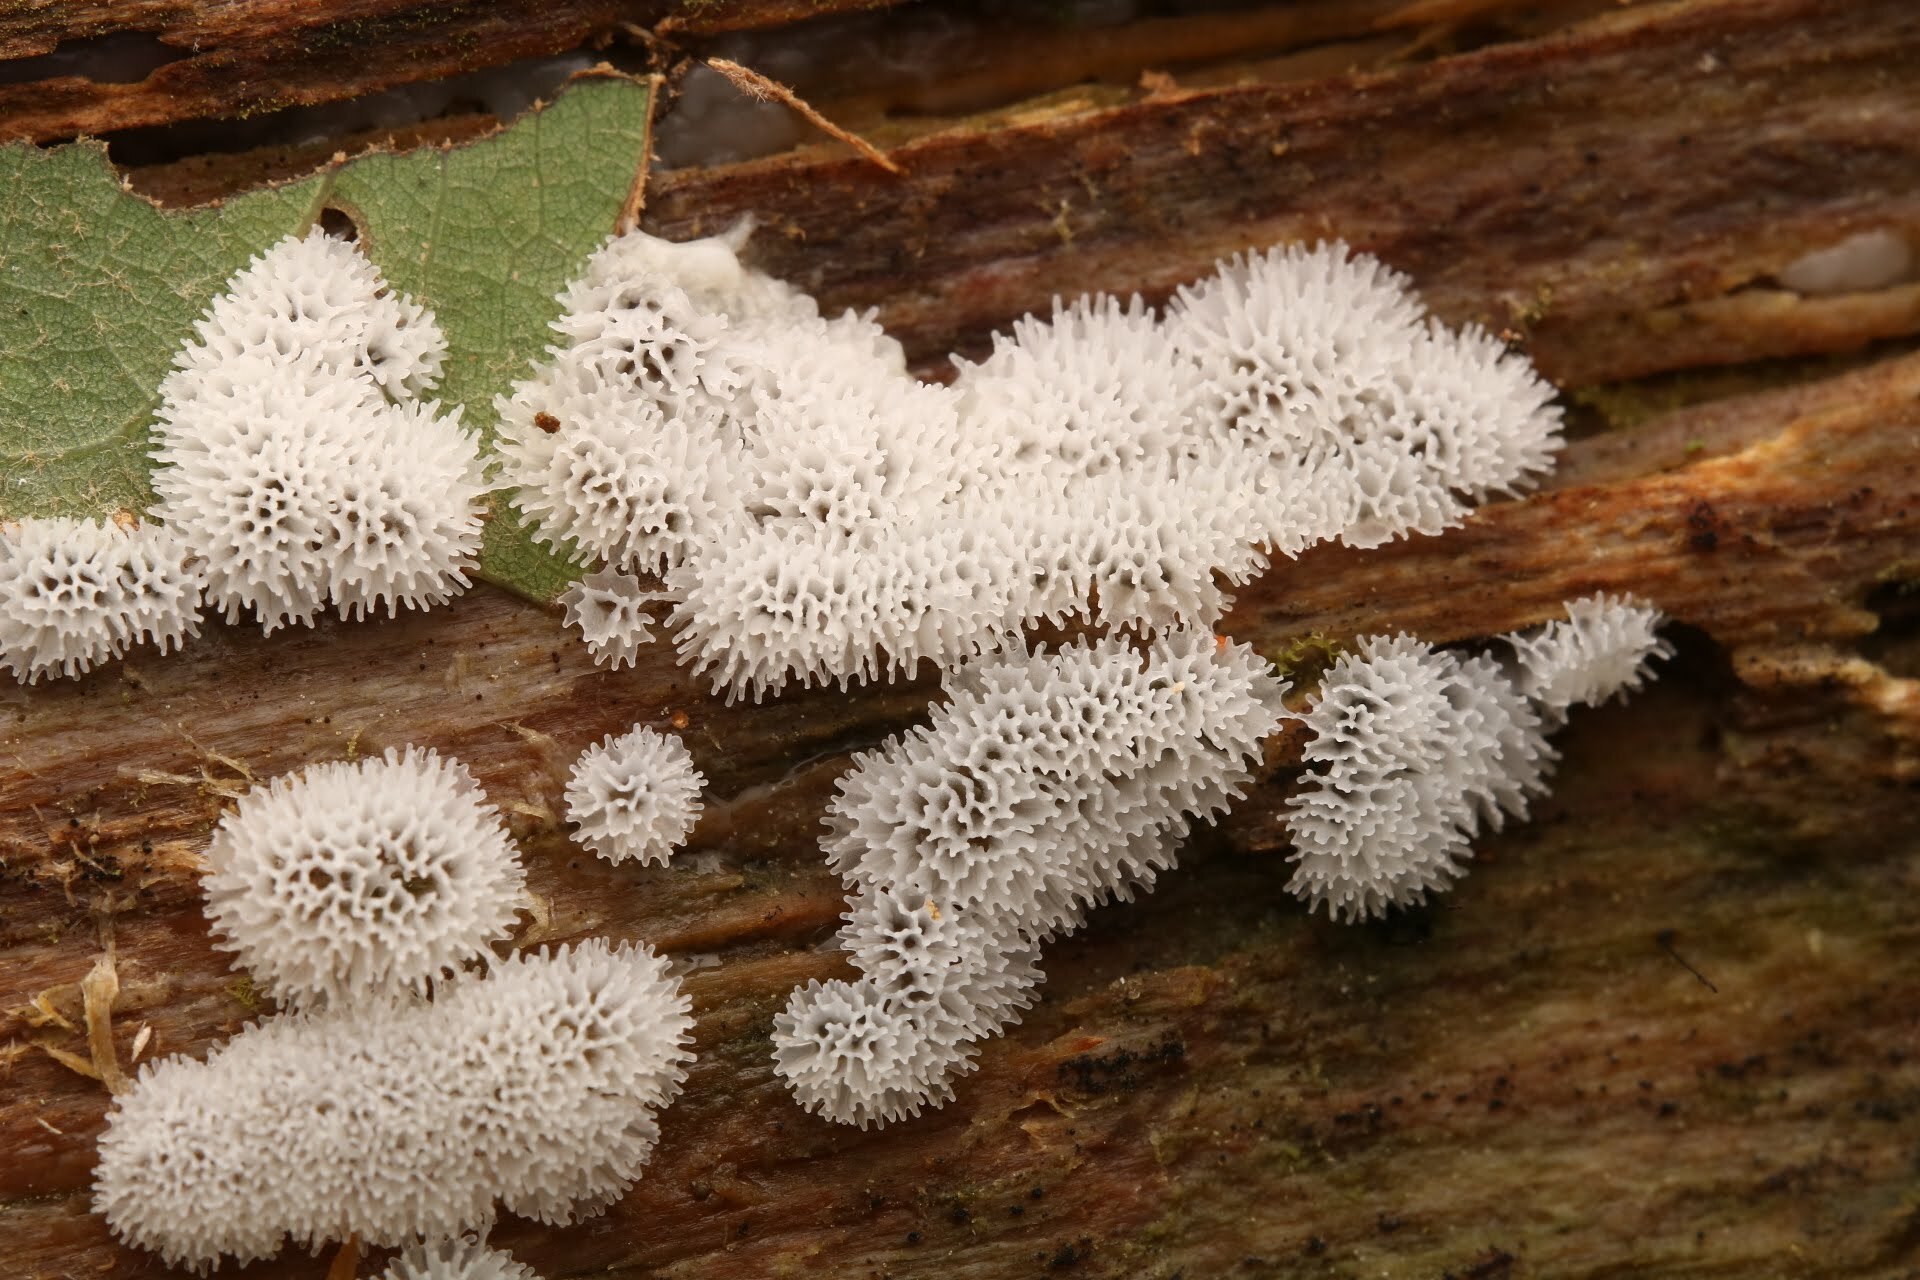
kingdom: Protozoa
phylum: Mycetozoa
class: Protosteliomycetes
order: Ceratiomyxales
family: Ceratiomyxaceae
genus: Ceratiomyxa
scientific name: Ceratiomyxa fruticulosa
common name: Honeycomb coral slime mold
